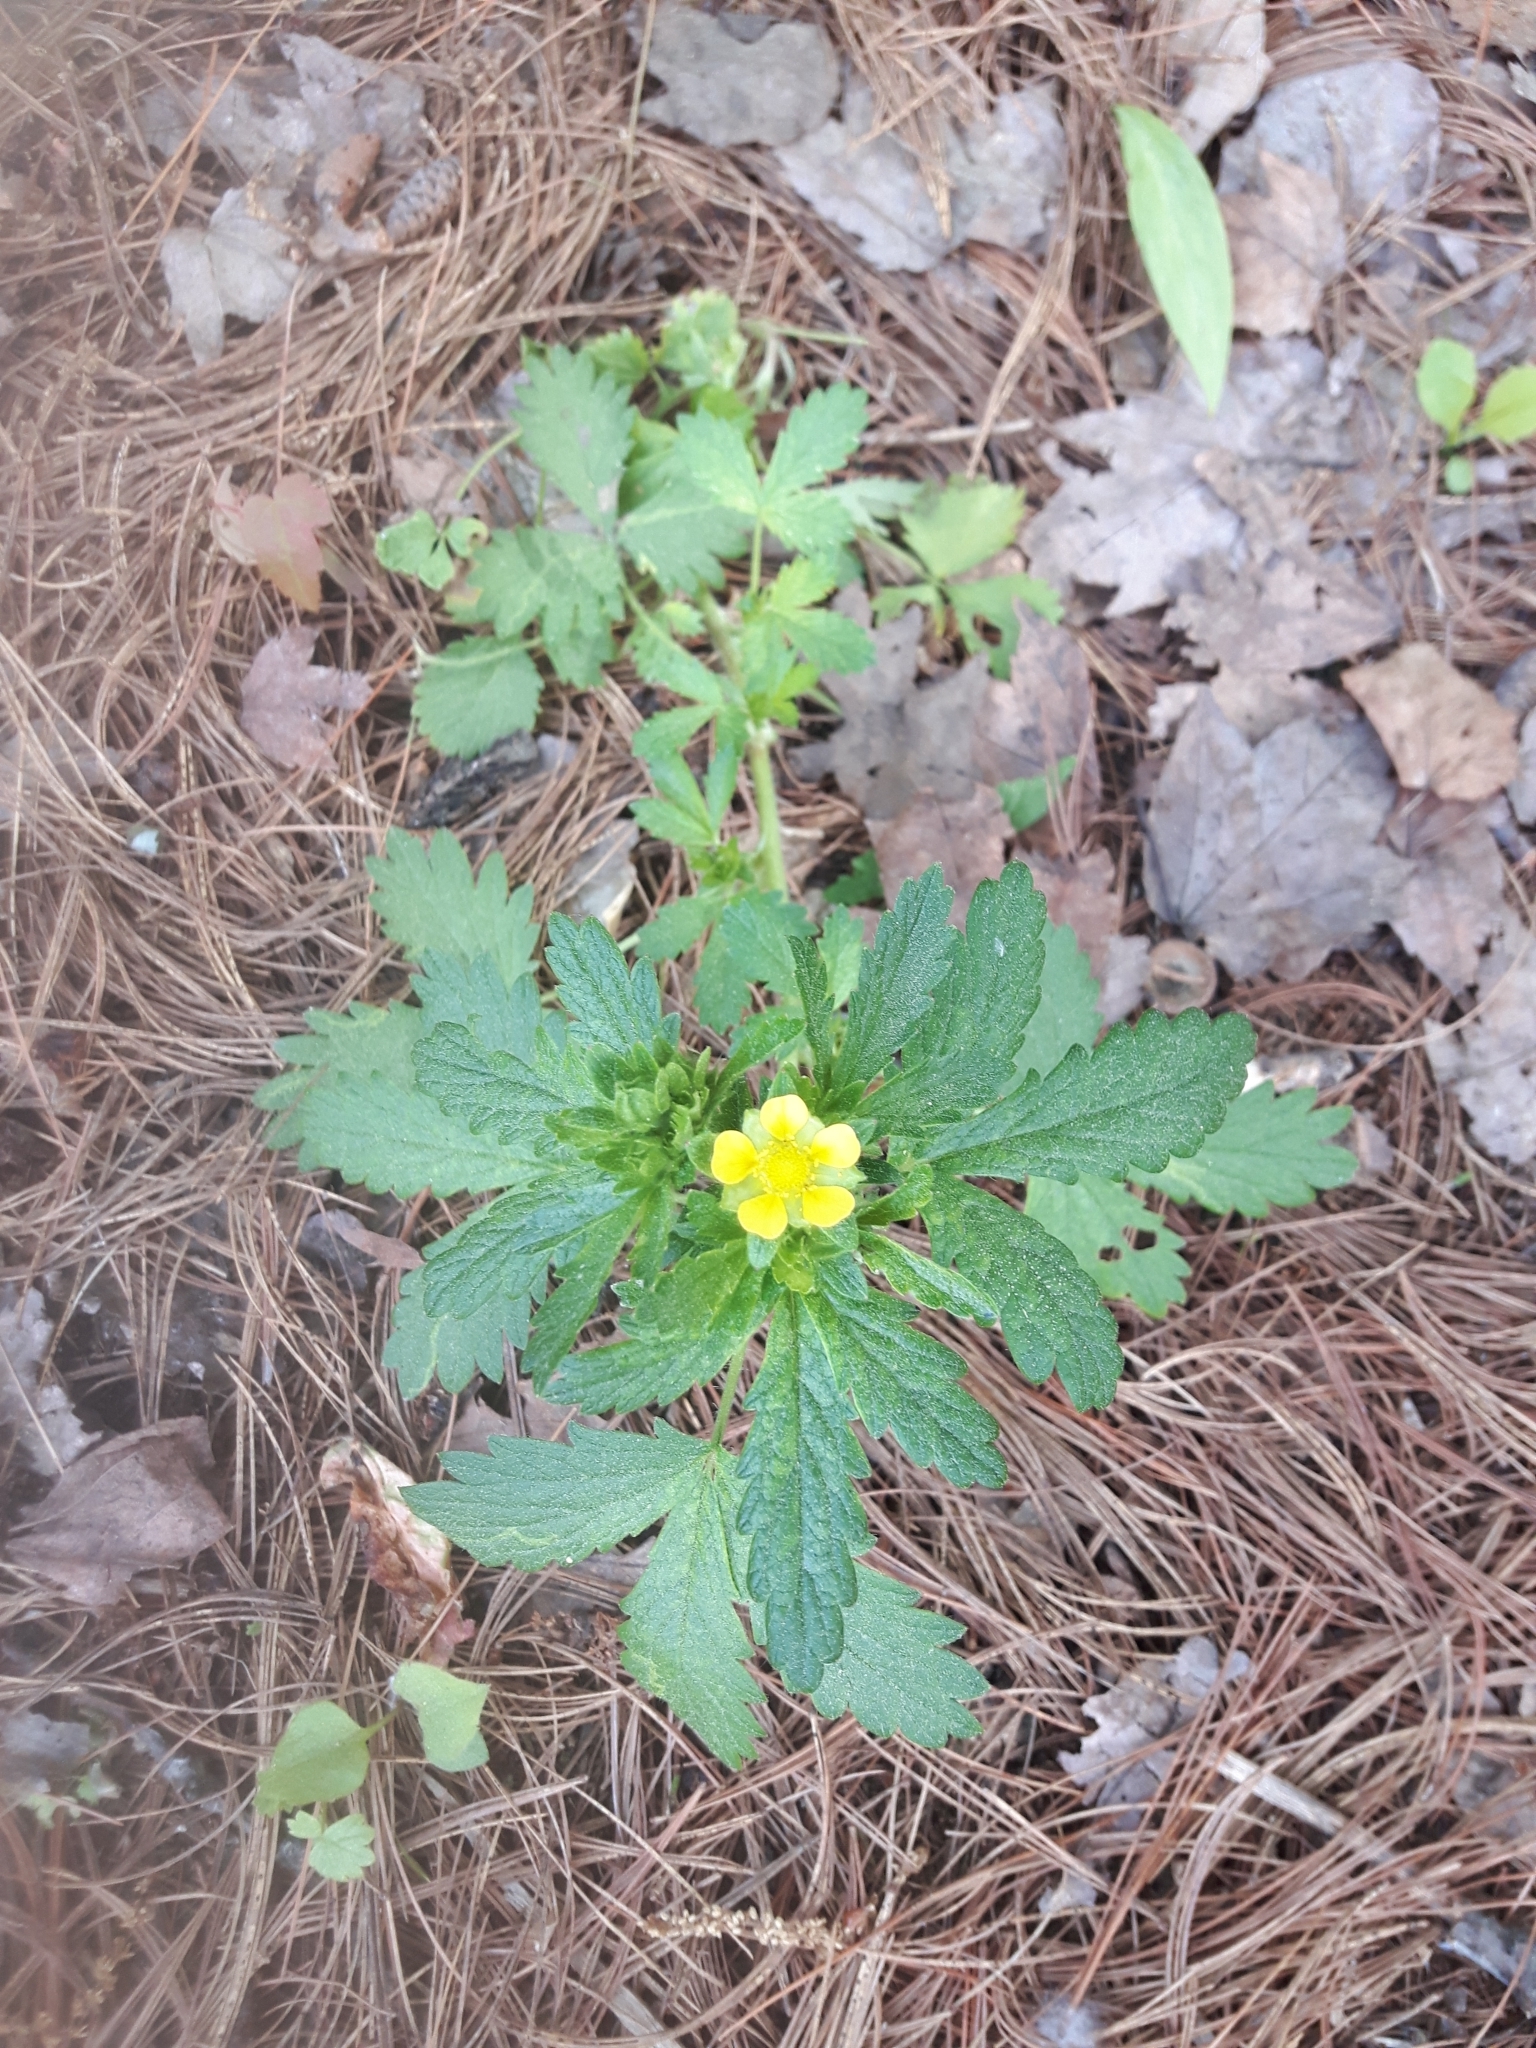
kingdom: Plantae
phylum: Tracheophyta
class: Magnoliopsida
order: Rosales
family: Rosaceae
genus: Potentilla
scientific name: Potentilla norvegica
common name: Ternate-leaved cinquefoil
